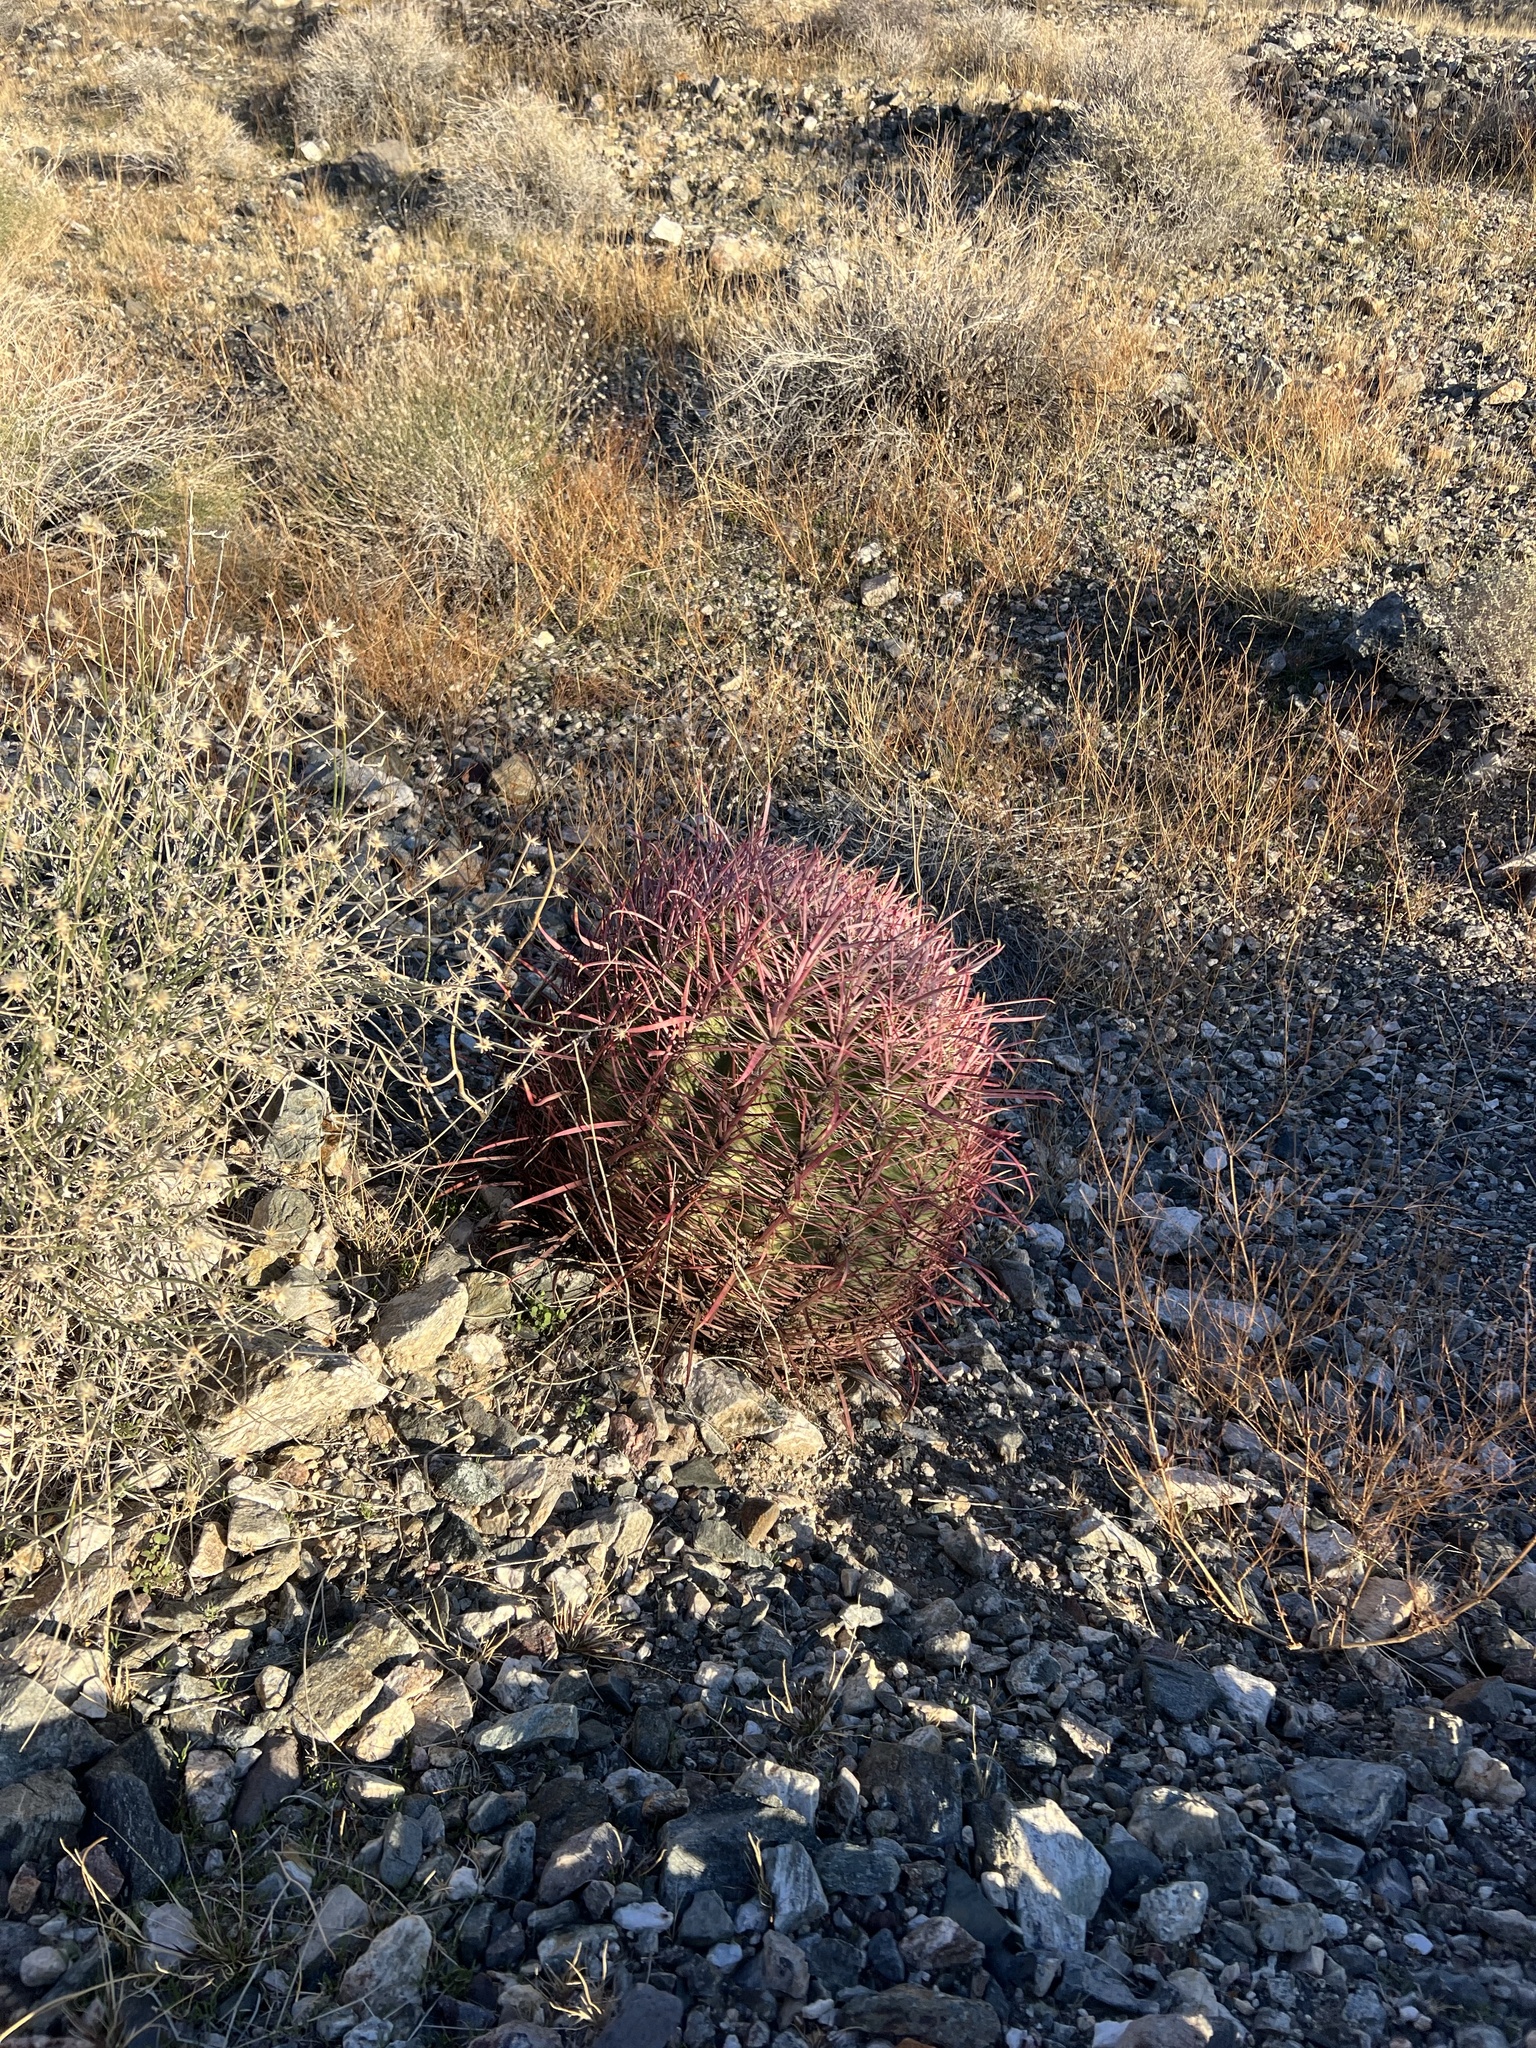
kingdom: Plantae
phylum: Tracheophyta
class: Magnoliopsida
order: Caryophyllales
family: Cactaceae
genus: Ferocactus
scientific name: Ferocactus cylindraceus
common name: California barrel cactus
